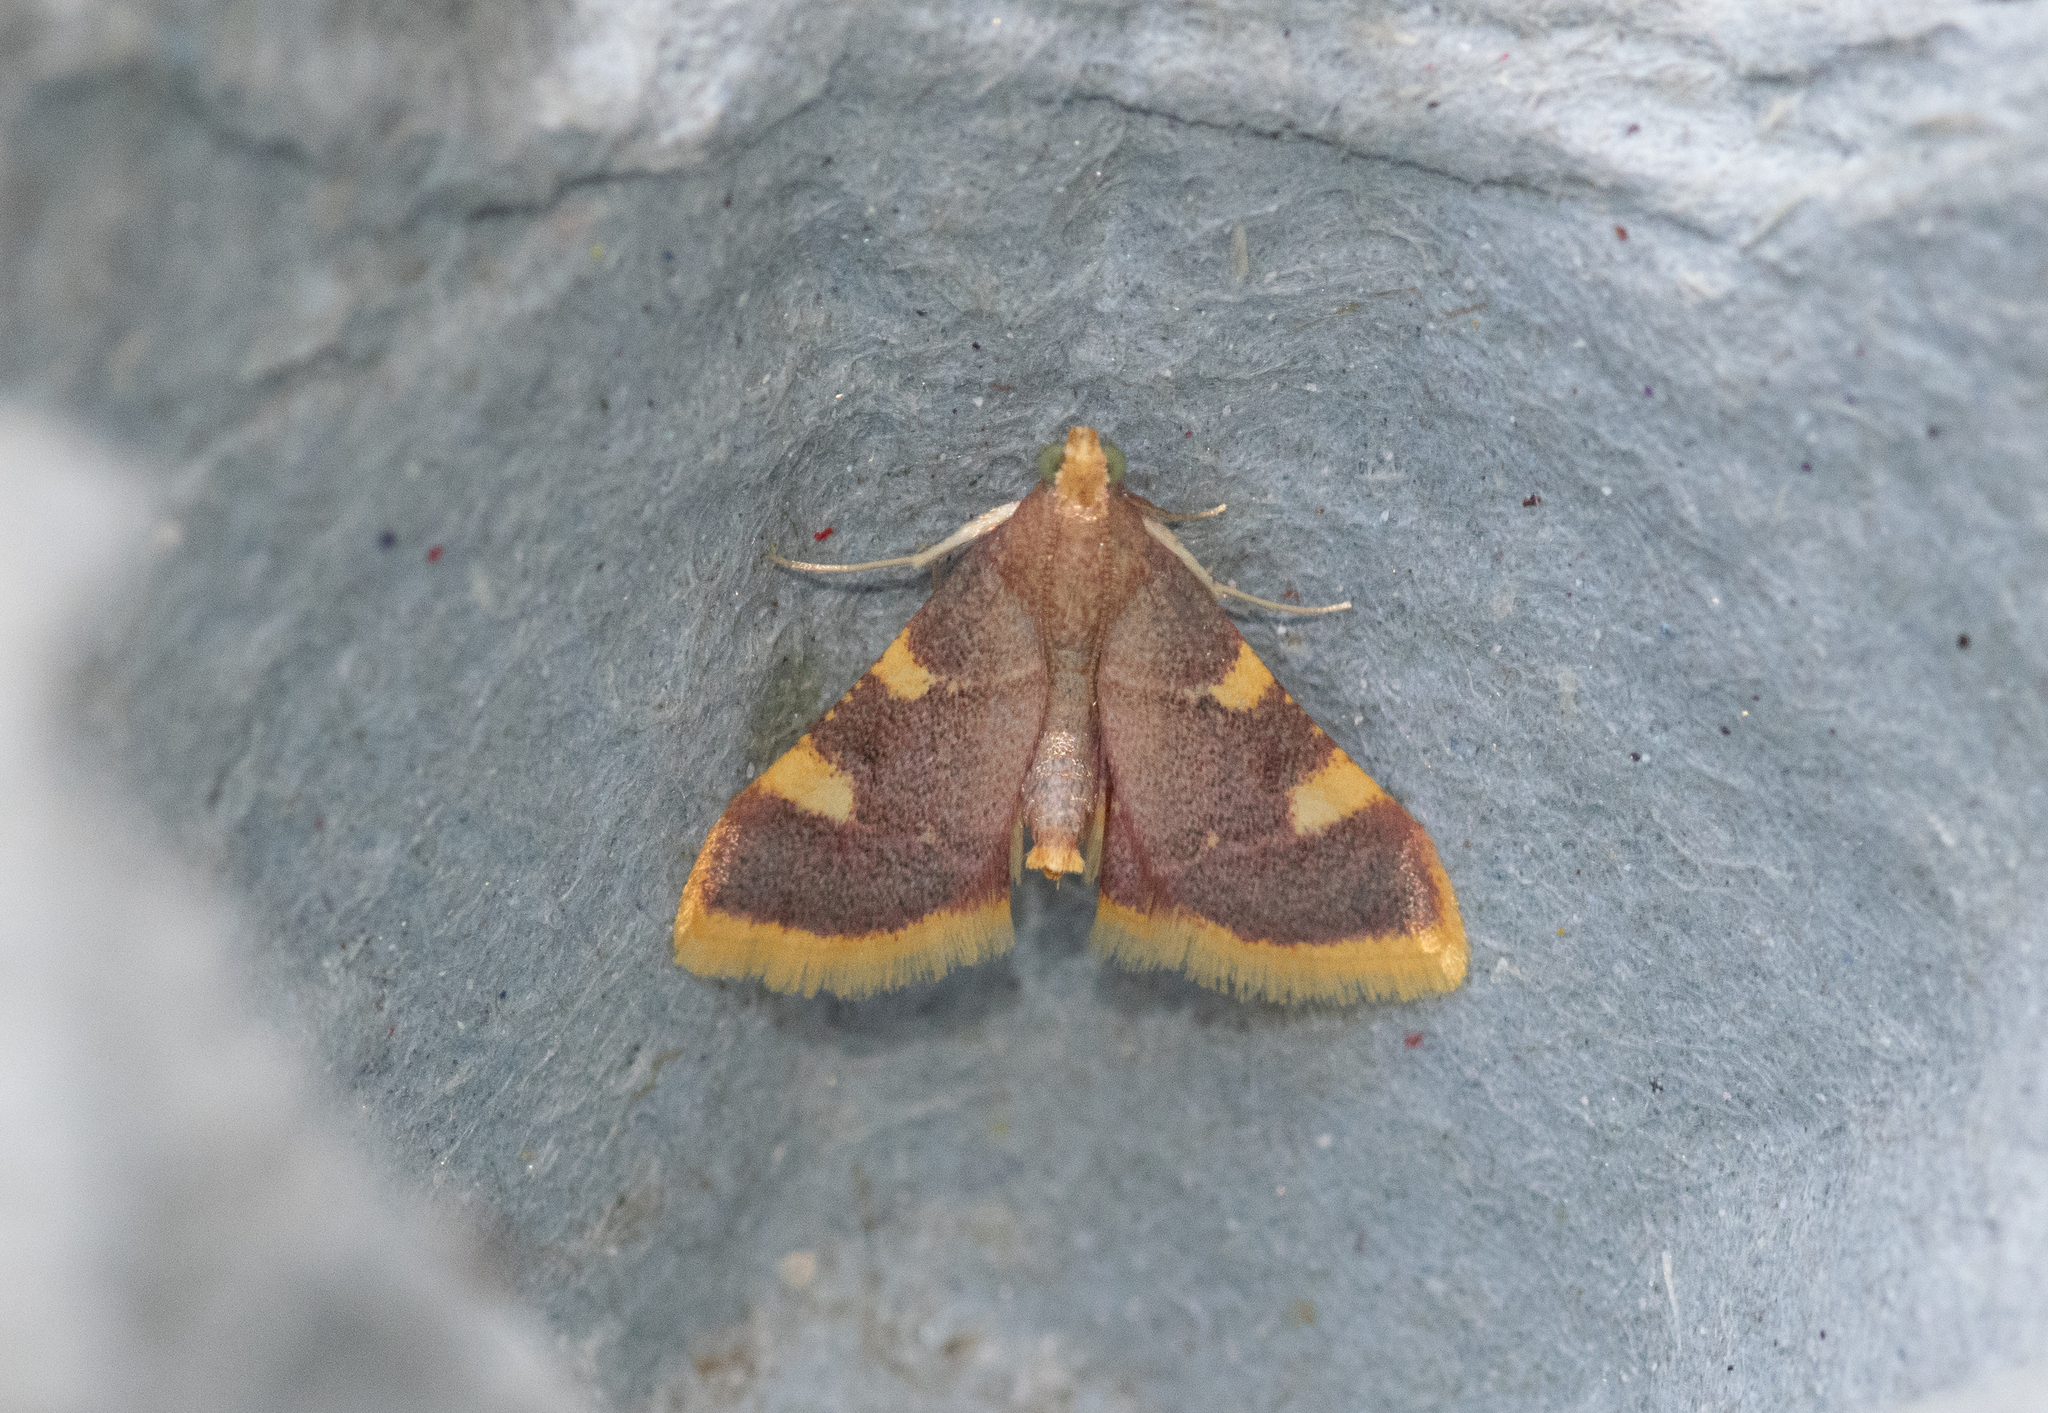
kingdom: Animalia
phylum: Arthropoda
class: Insecta
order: Lepidoptera
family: Pyralidae
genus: Hypsopygia
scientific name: Hypsopygia costalis
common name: Gold triangle
